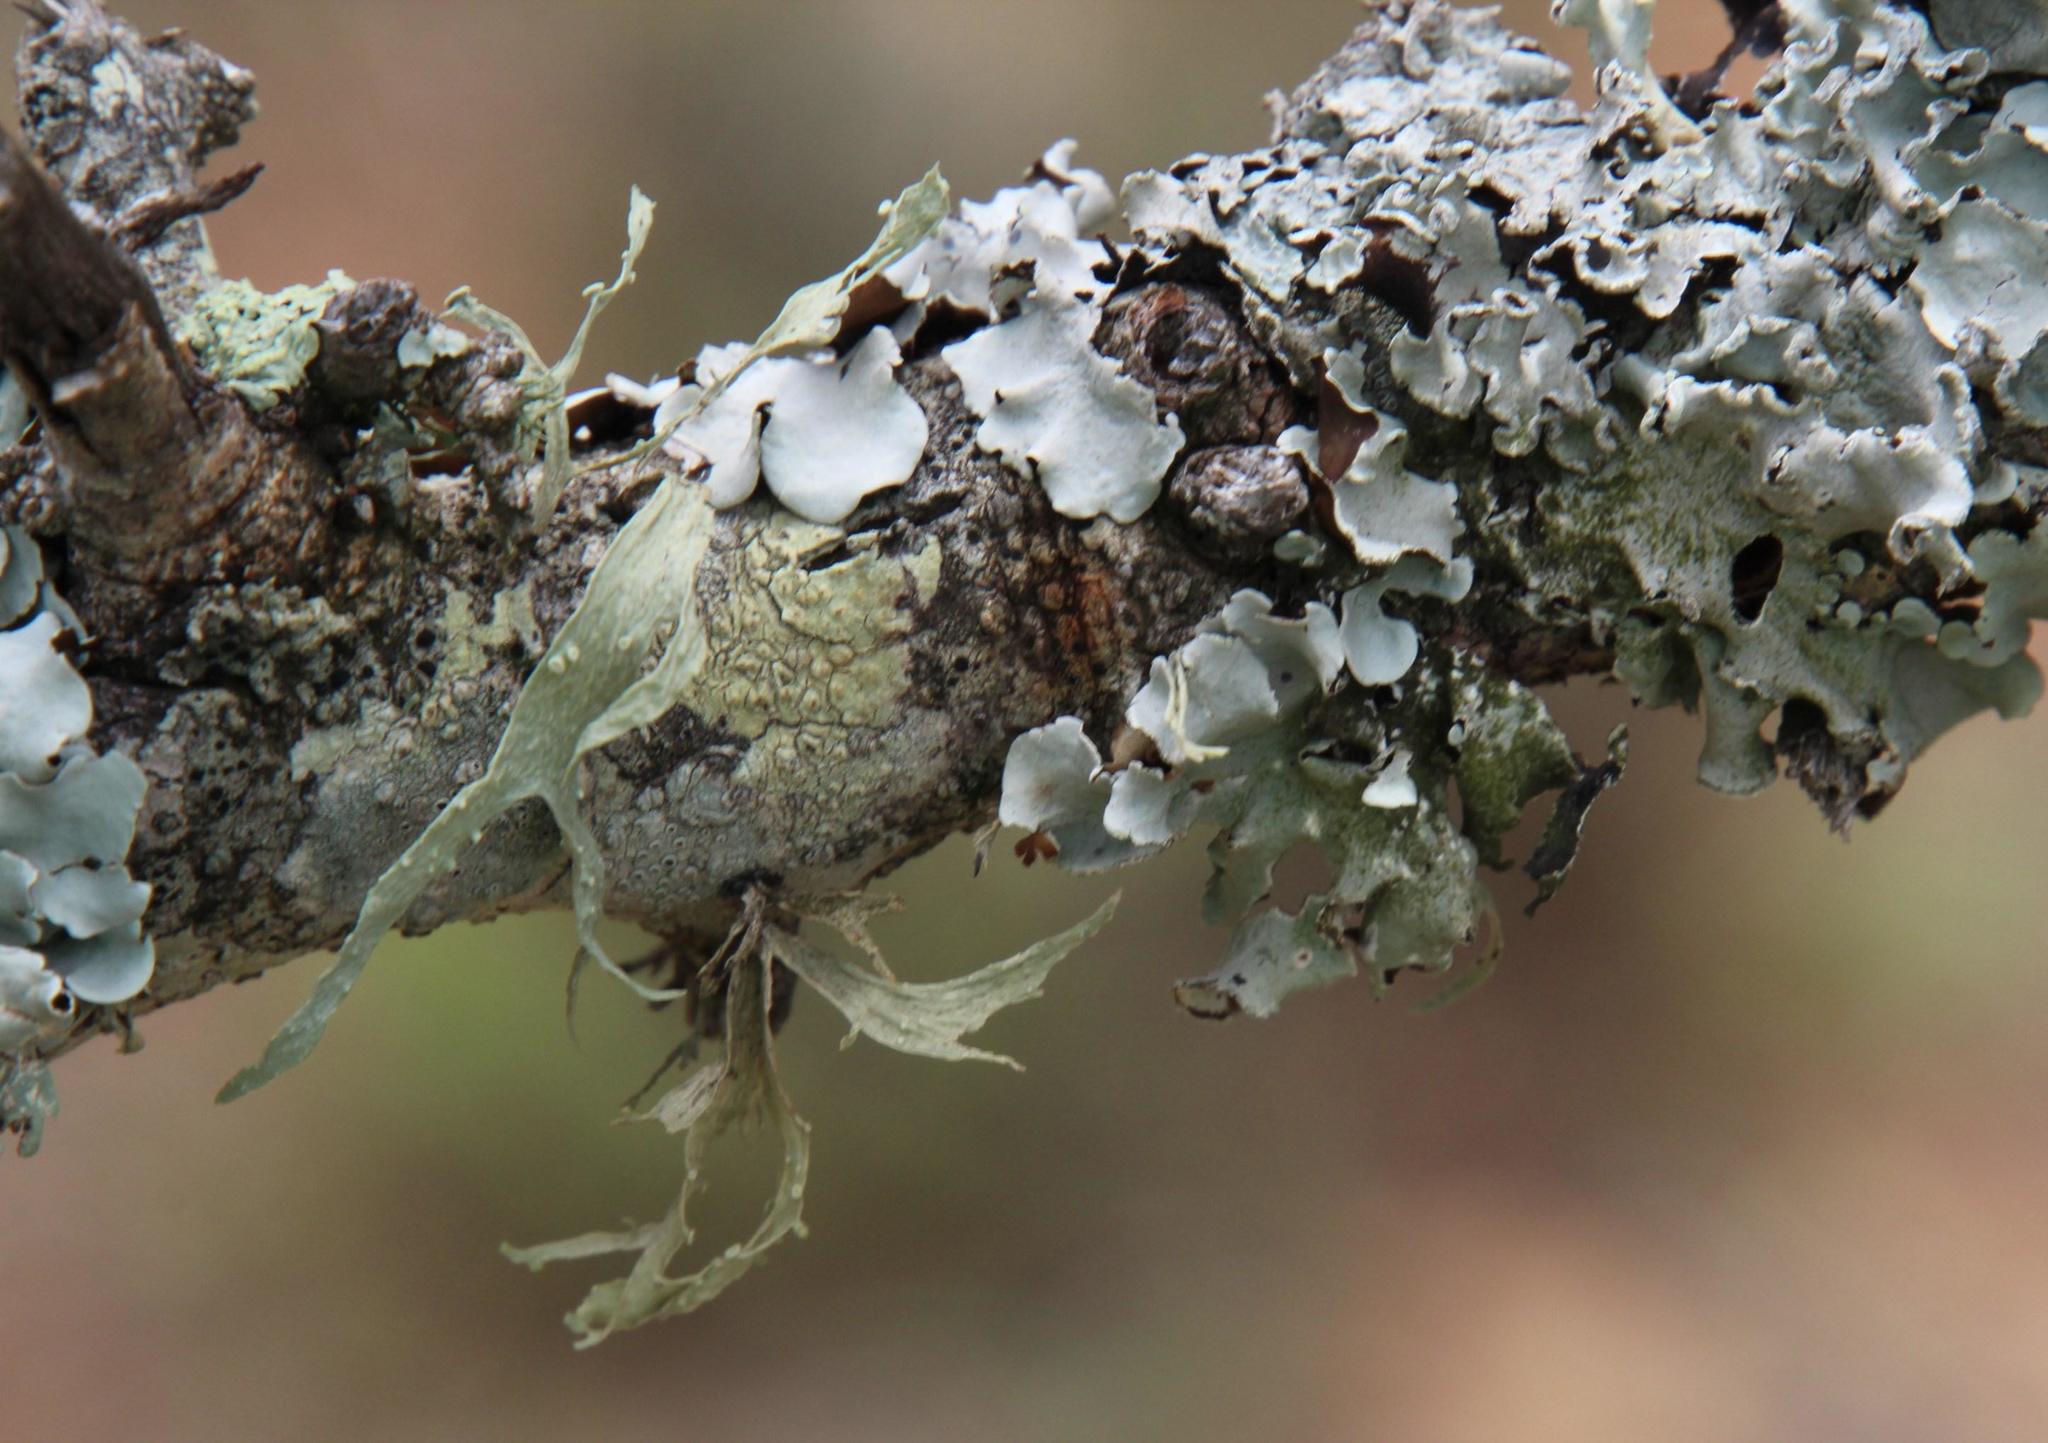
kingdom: Fungi
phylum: Ascomycota
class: Lecanoromycetes
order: Lecanorales
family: Ramalinaceae
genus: Ramalina
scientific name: Ramalina celastri
